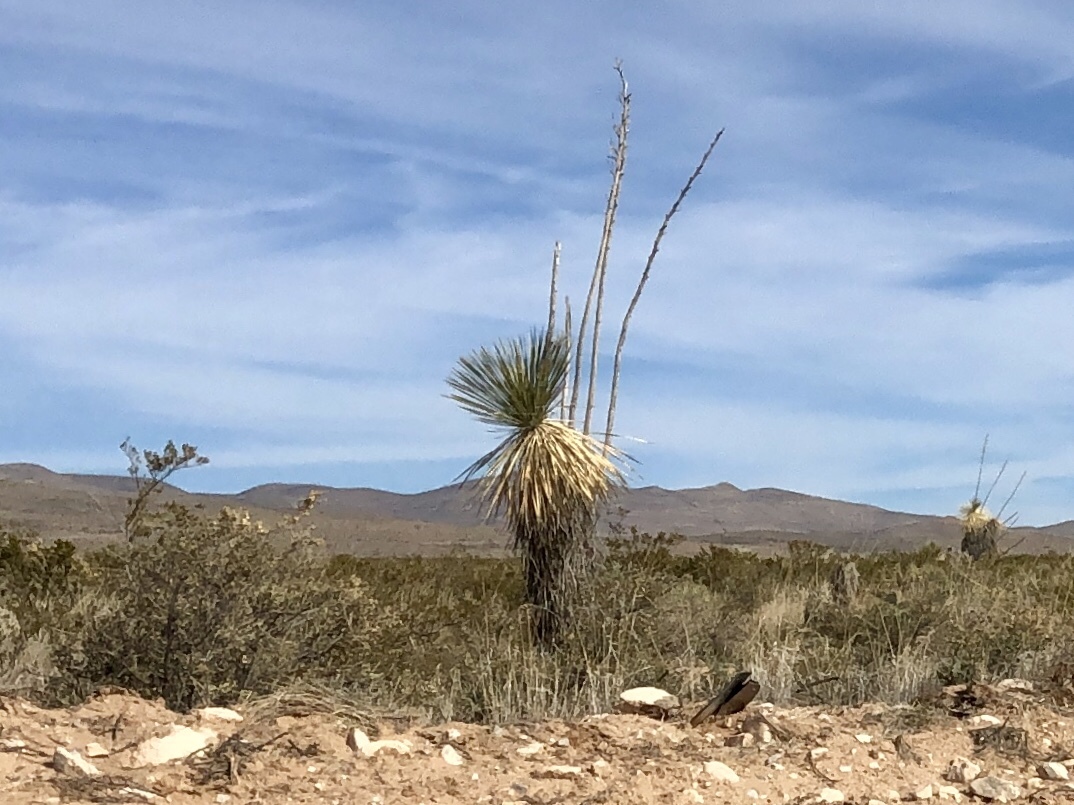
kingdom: Plantae
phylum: Tracheophyta
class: Liliopsida
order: Asparagales
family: Asparagaceae
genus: Yucca
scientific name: Yucca elata
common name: Palmella
